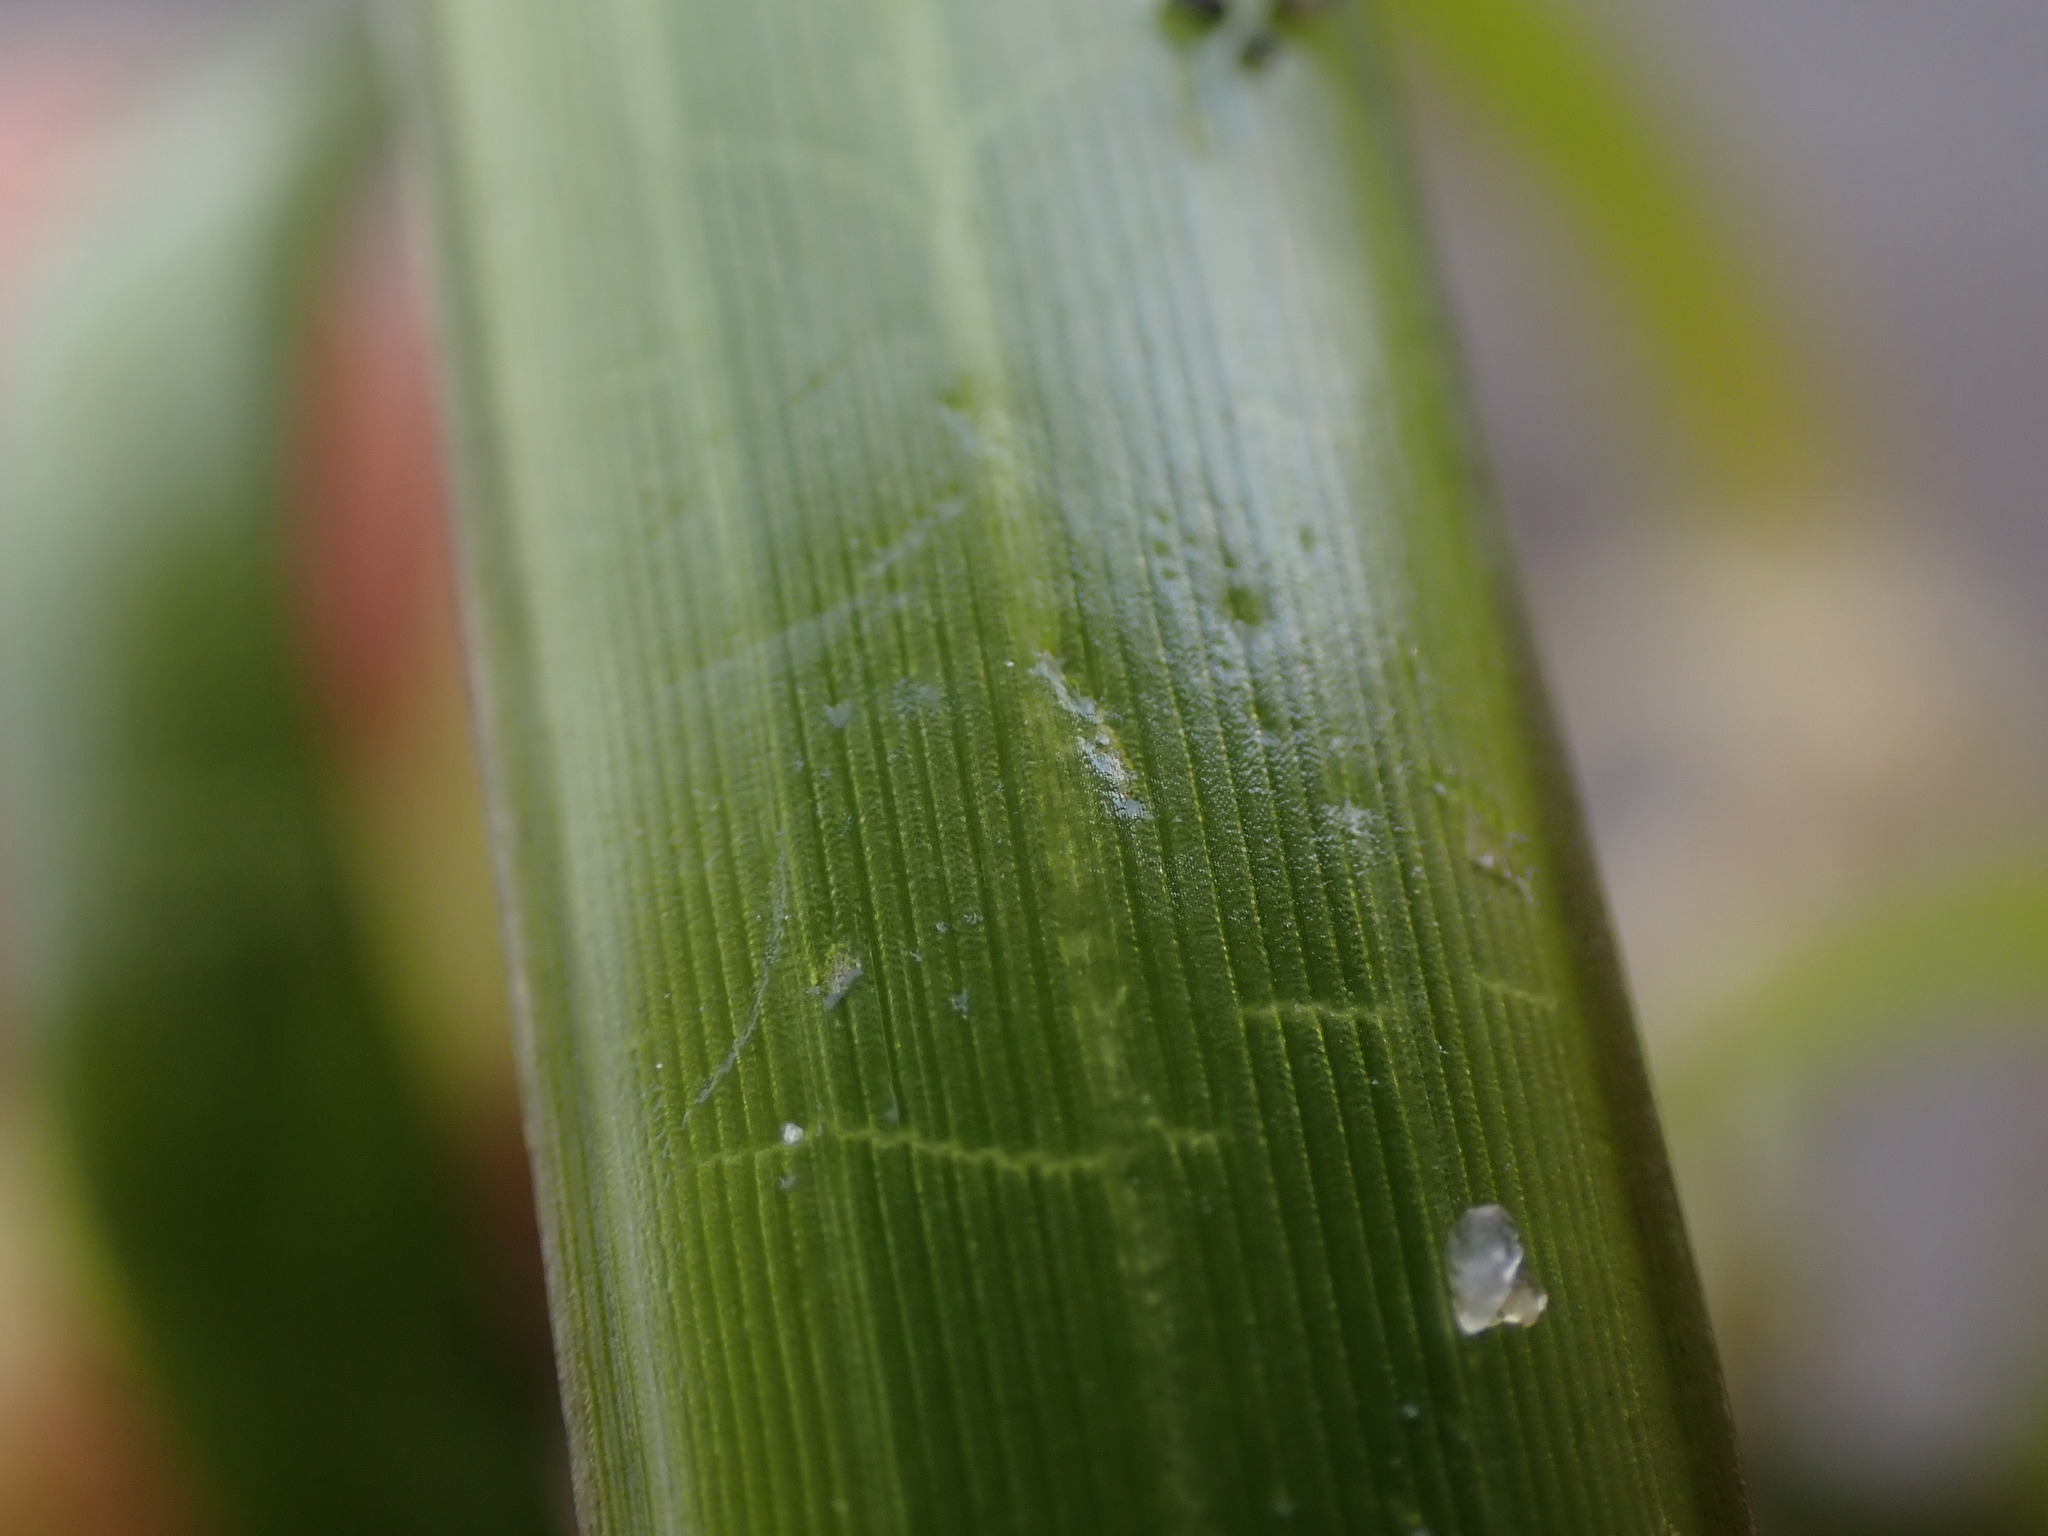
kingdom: Plantae
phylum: Tracheophyta
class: Liliopsida
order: Alismatales
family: Zosteraceae
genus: Zostera
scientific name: Zostera marina
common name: Eelgrass
